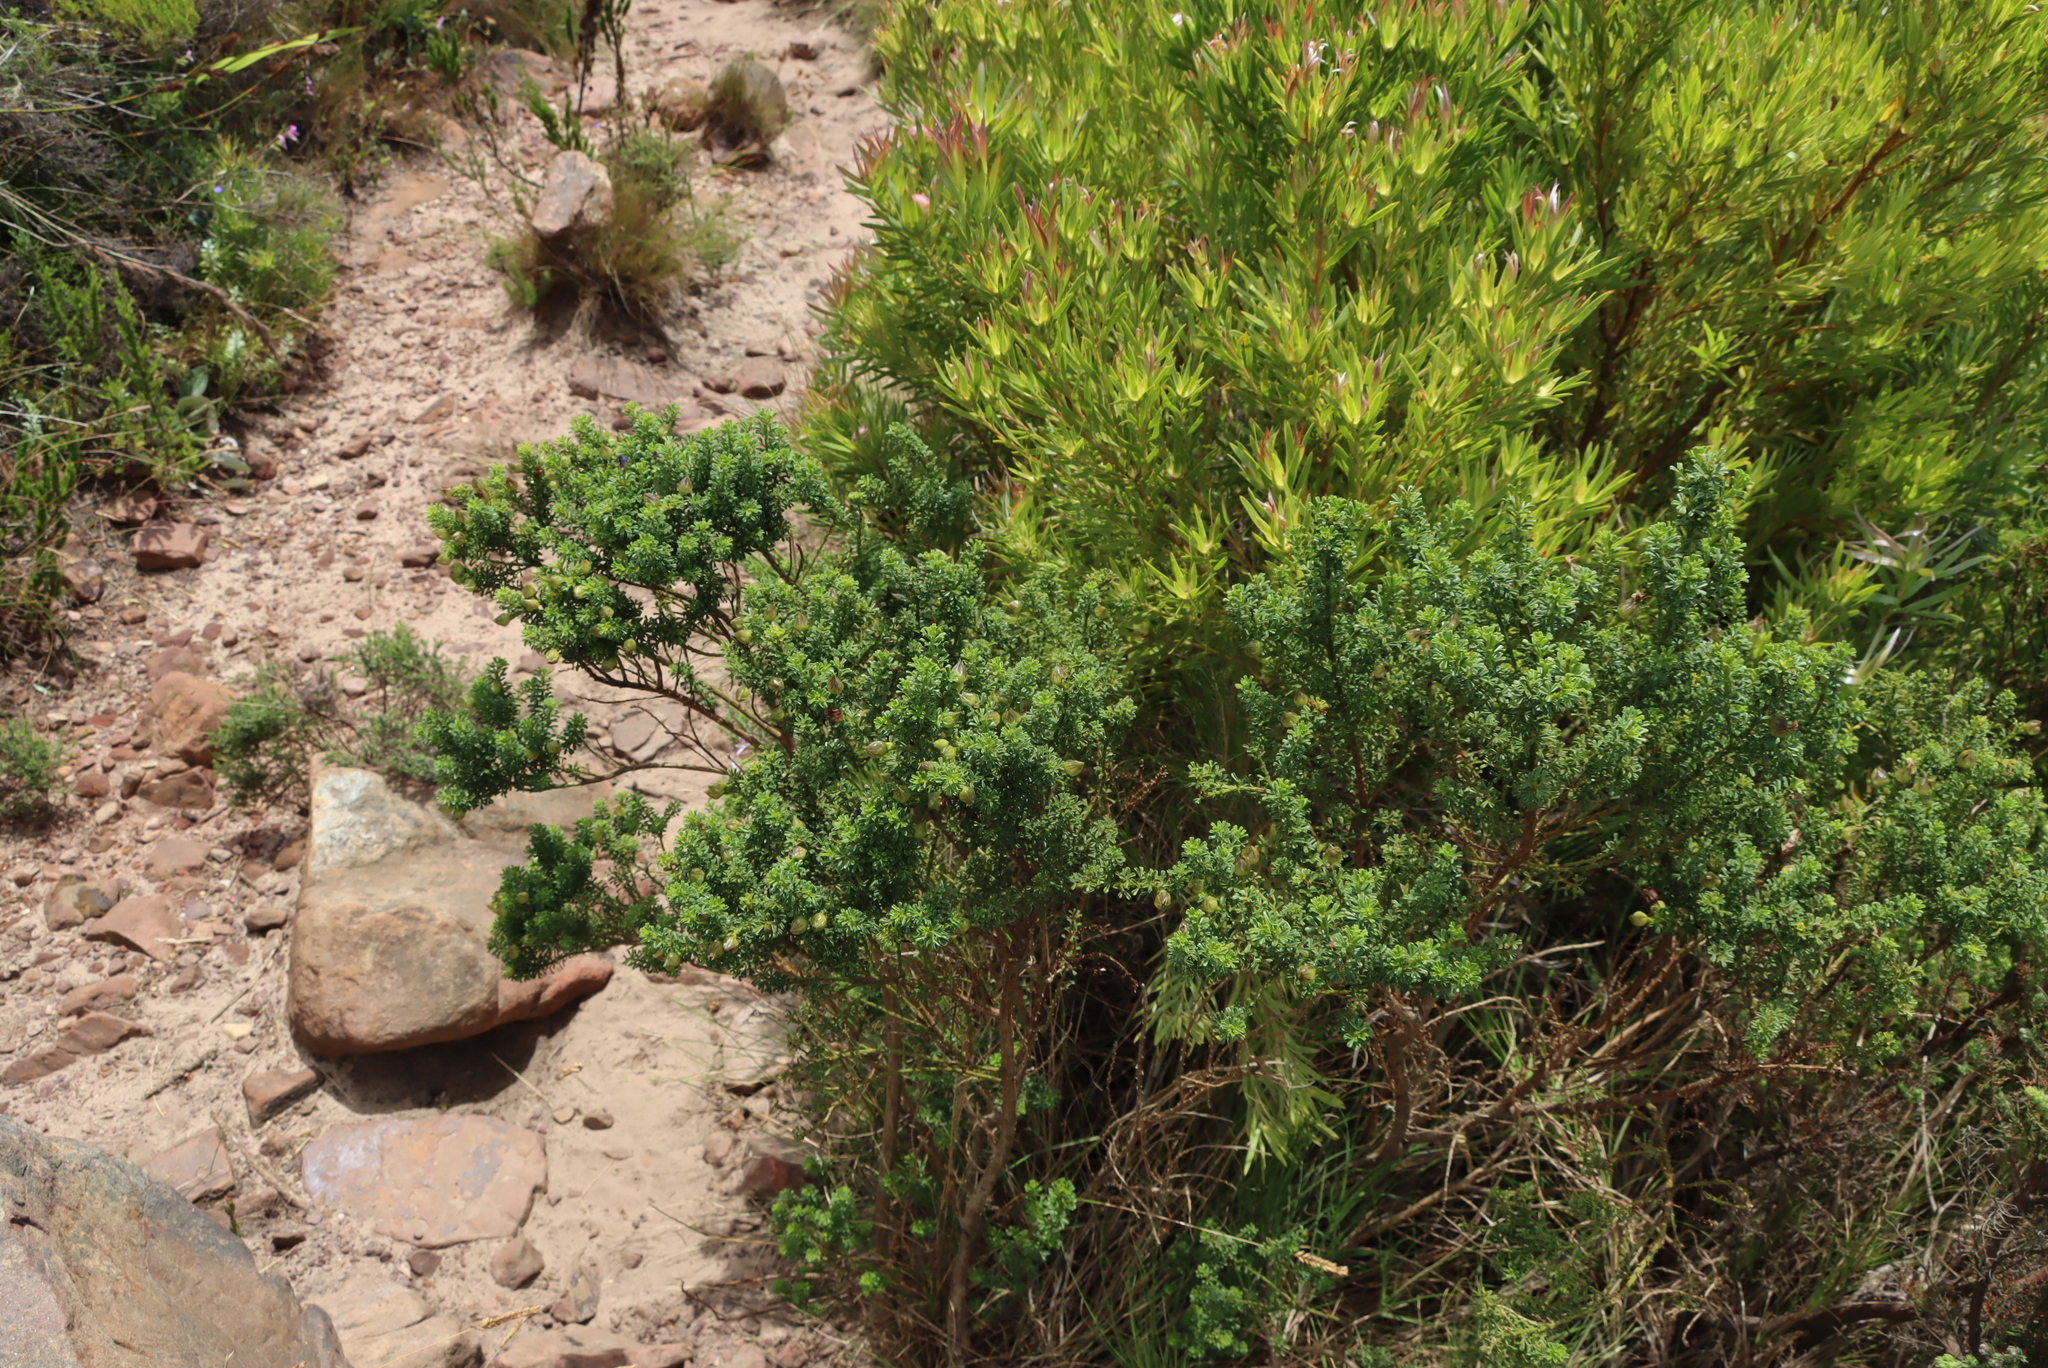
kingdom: Plantae
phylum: Tracheophyta
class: Magnoliopsida
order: Fabales
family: Fabaceae
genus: Psoralea
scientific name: Psoralea aculeata
